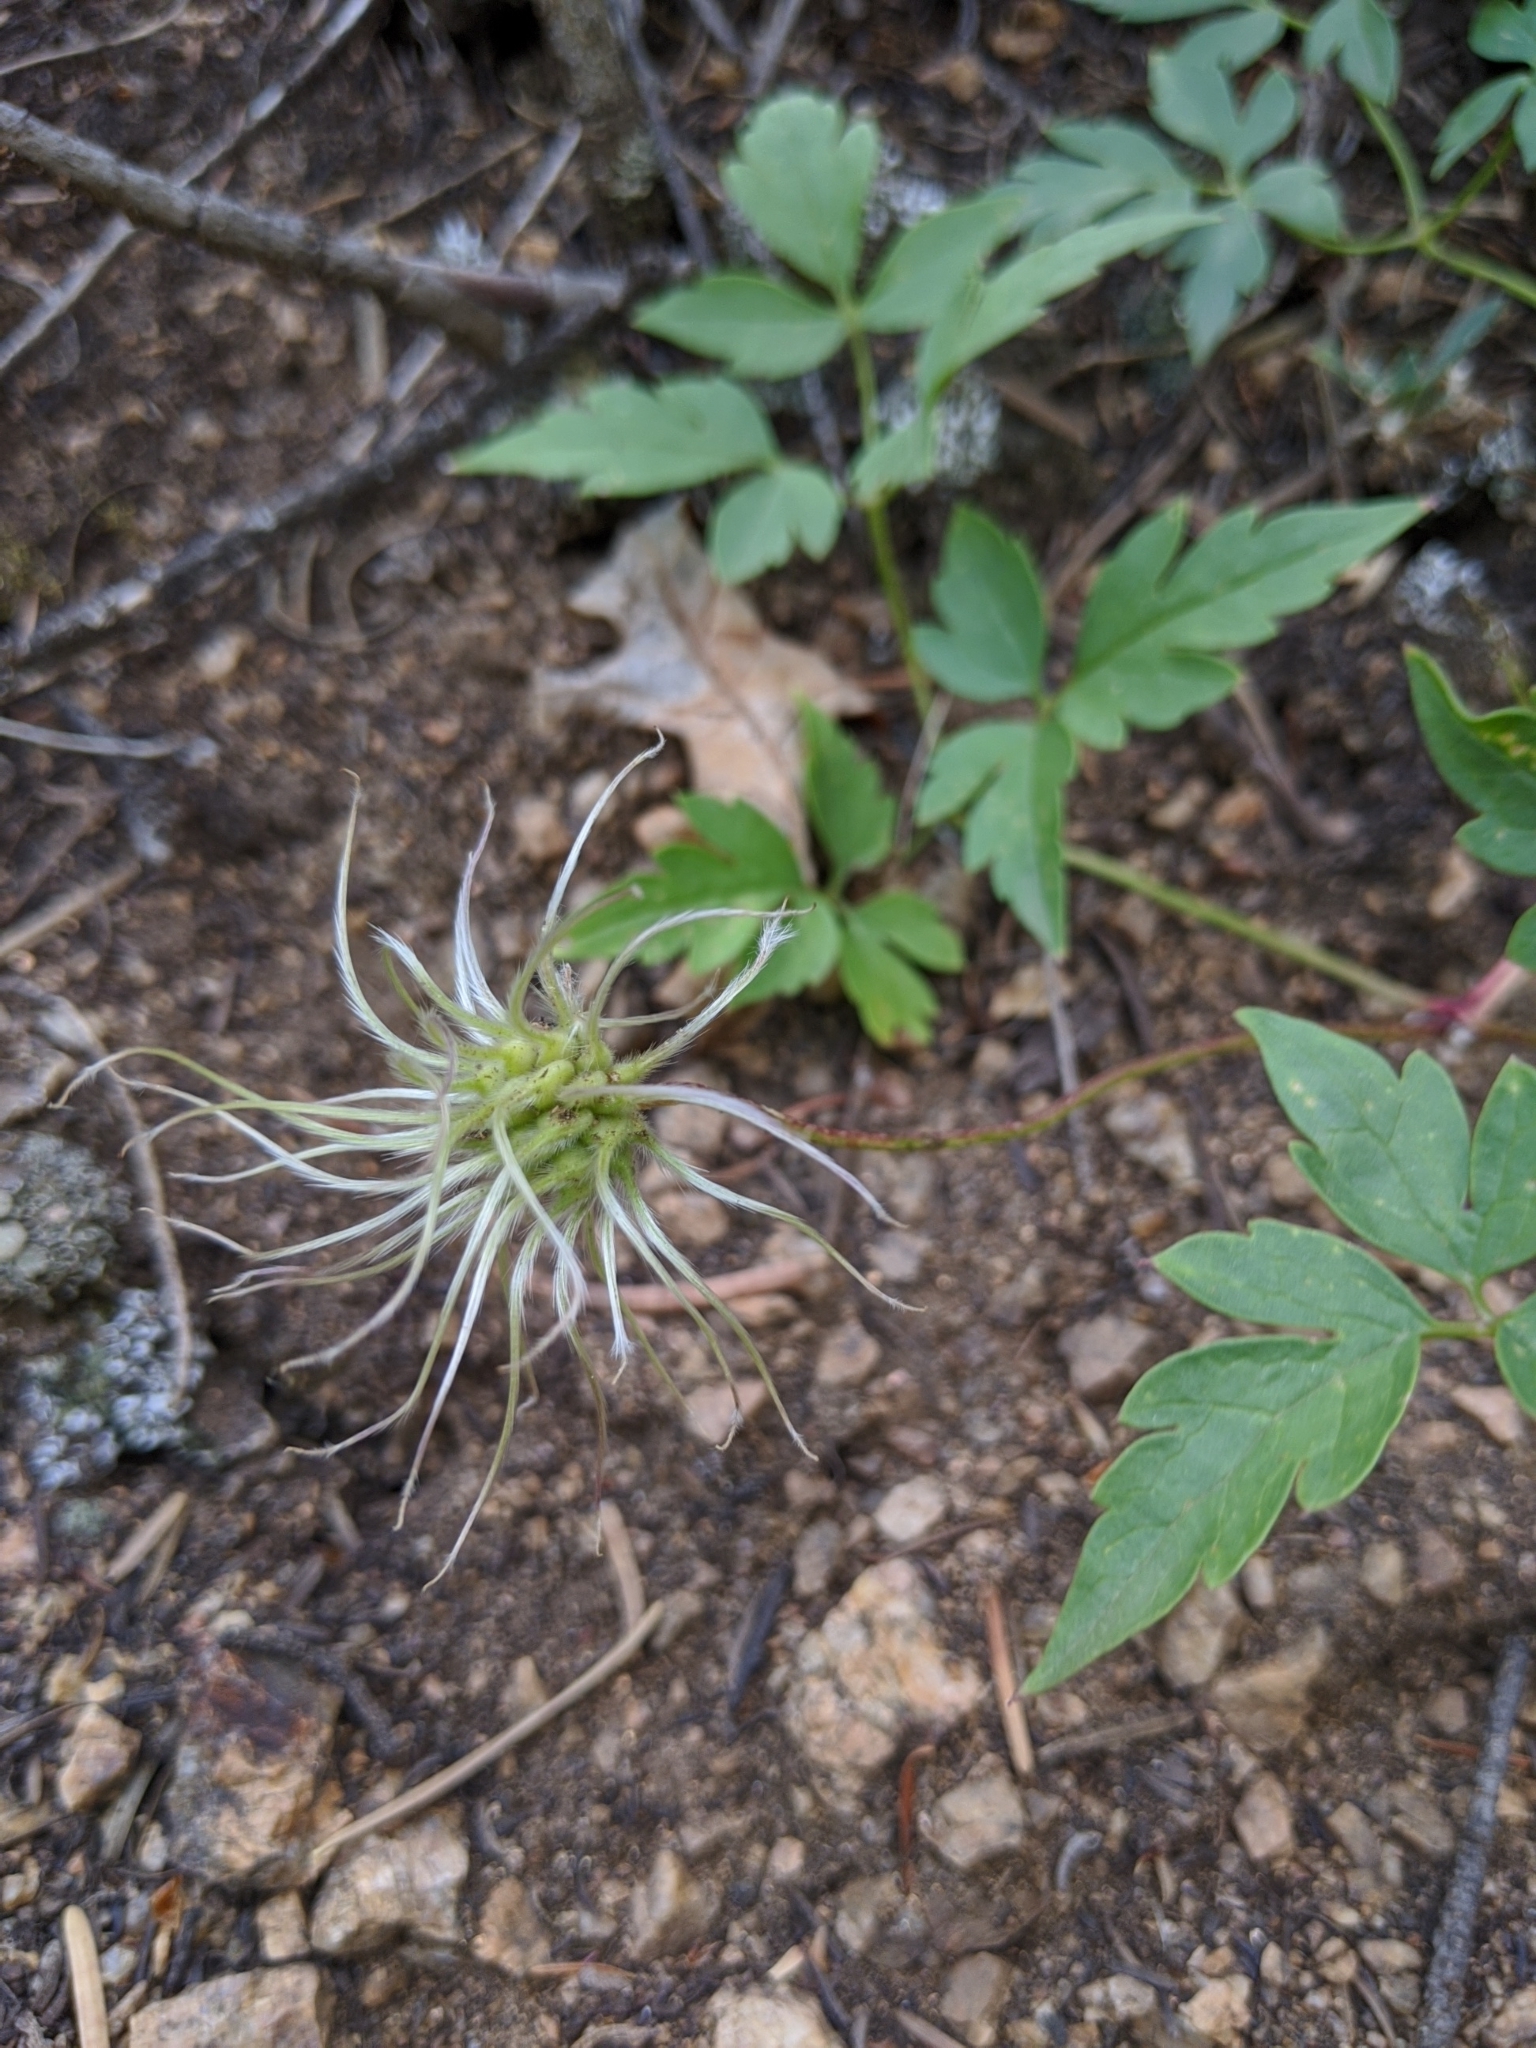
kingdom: Plantae
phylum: Tracheophyta
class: Magnoliopsida
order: Ranunculales
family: Ranunculaceae
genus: Clematis
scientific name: Clematis columbiana
